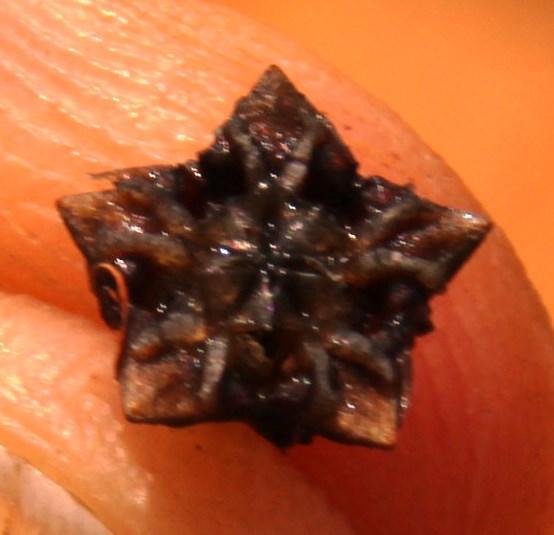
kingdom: Plantae
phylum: Tracheophyta
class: Magnoliopsida
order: Caryophyllales
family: Aizoaceae
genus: Lampranthus
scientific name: Lampranthus capillaceus
